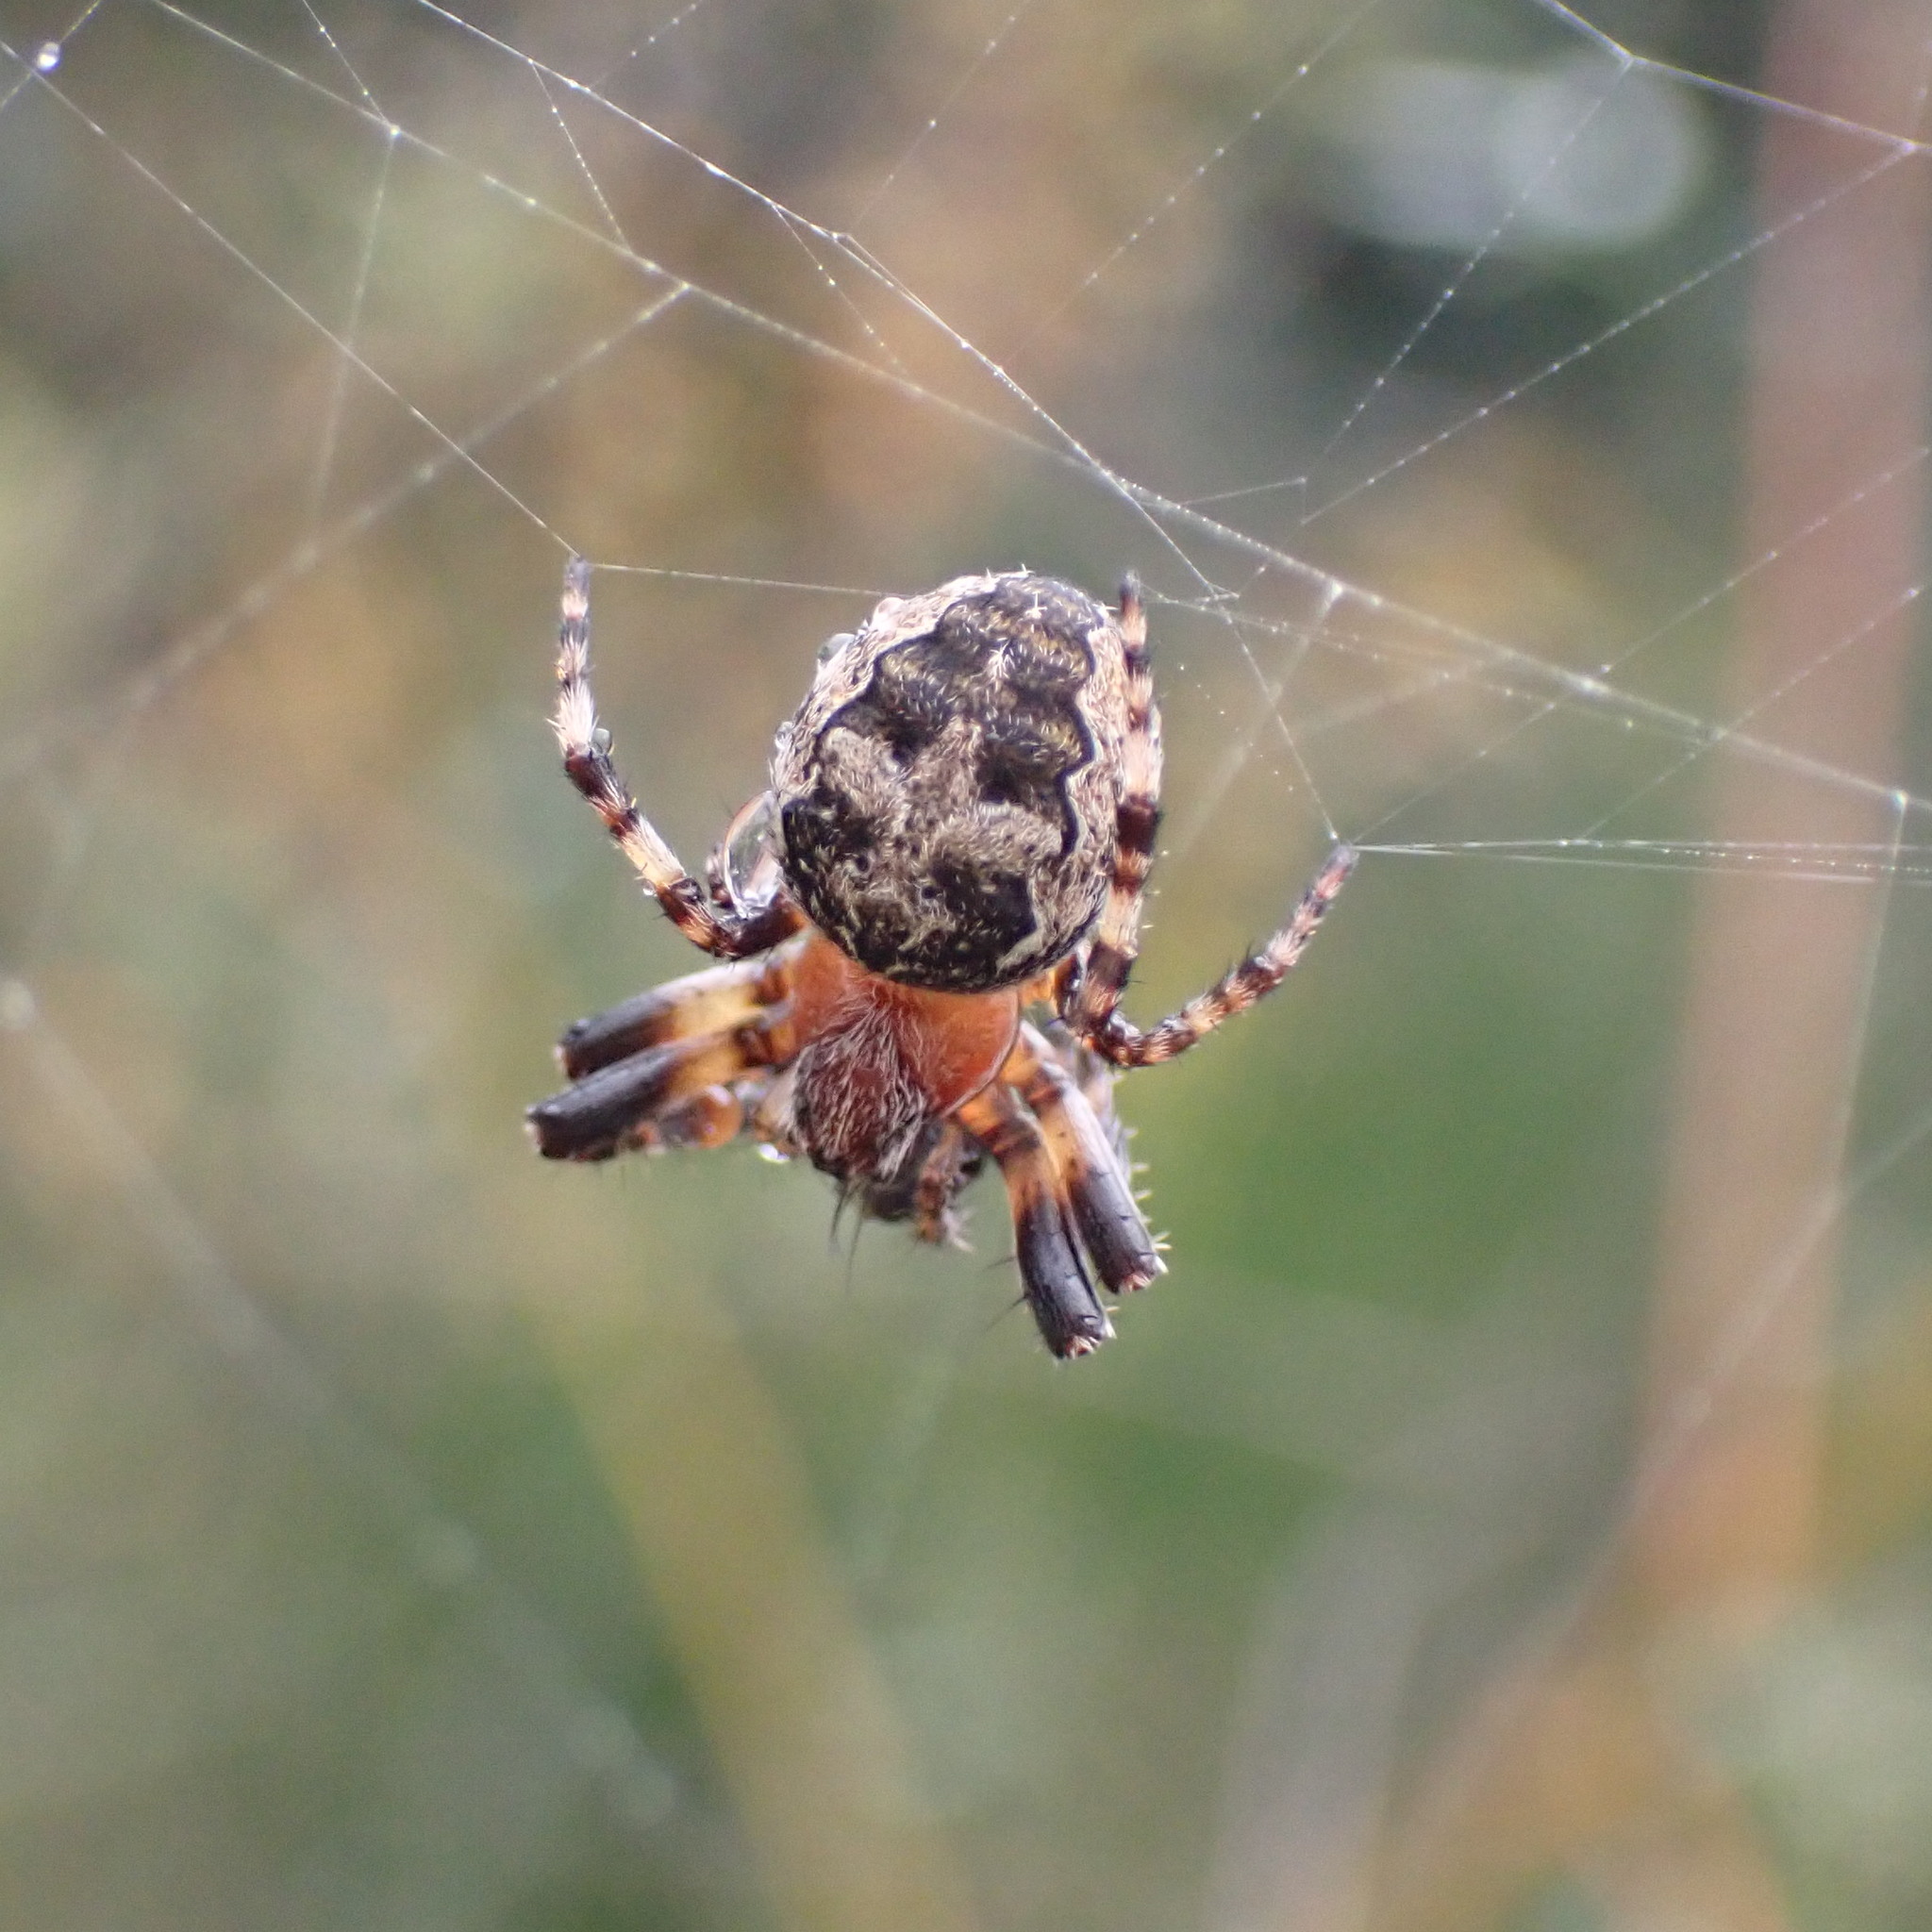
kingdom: Animalia
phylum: Arthropoda
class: Arachnida
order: Araneae
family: Araneidae
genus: Larinioides
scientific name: Larinioides patagiatus
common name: Ornamental orbweaver
